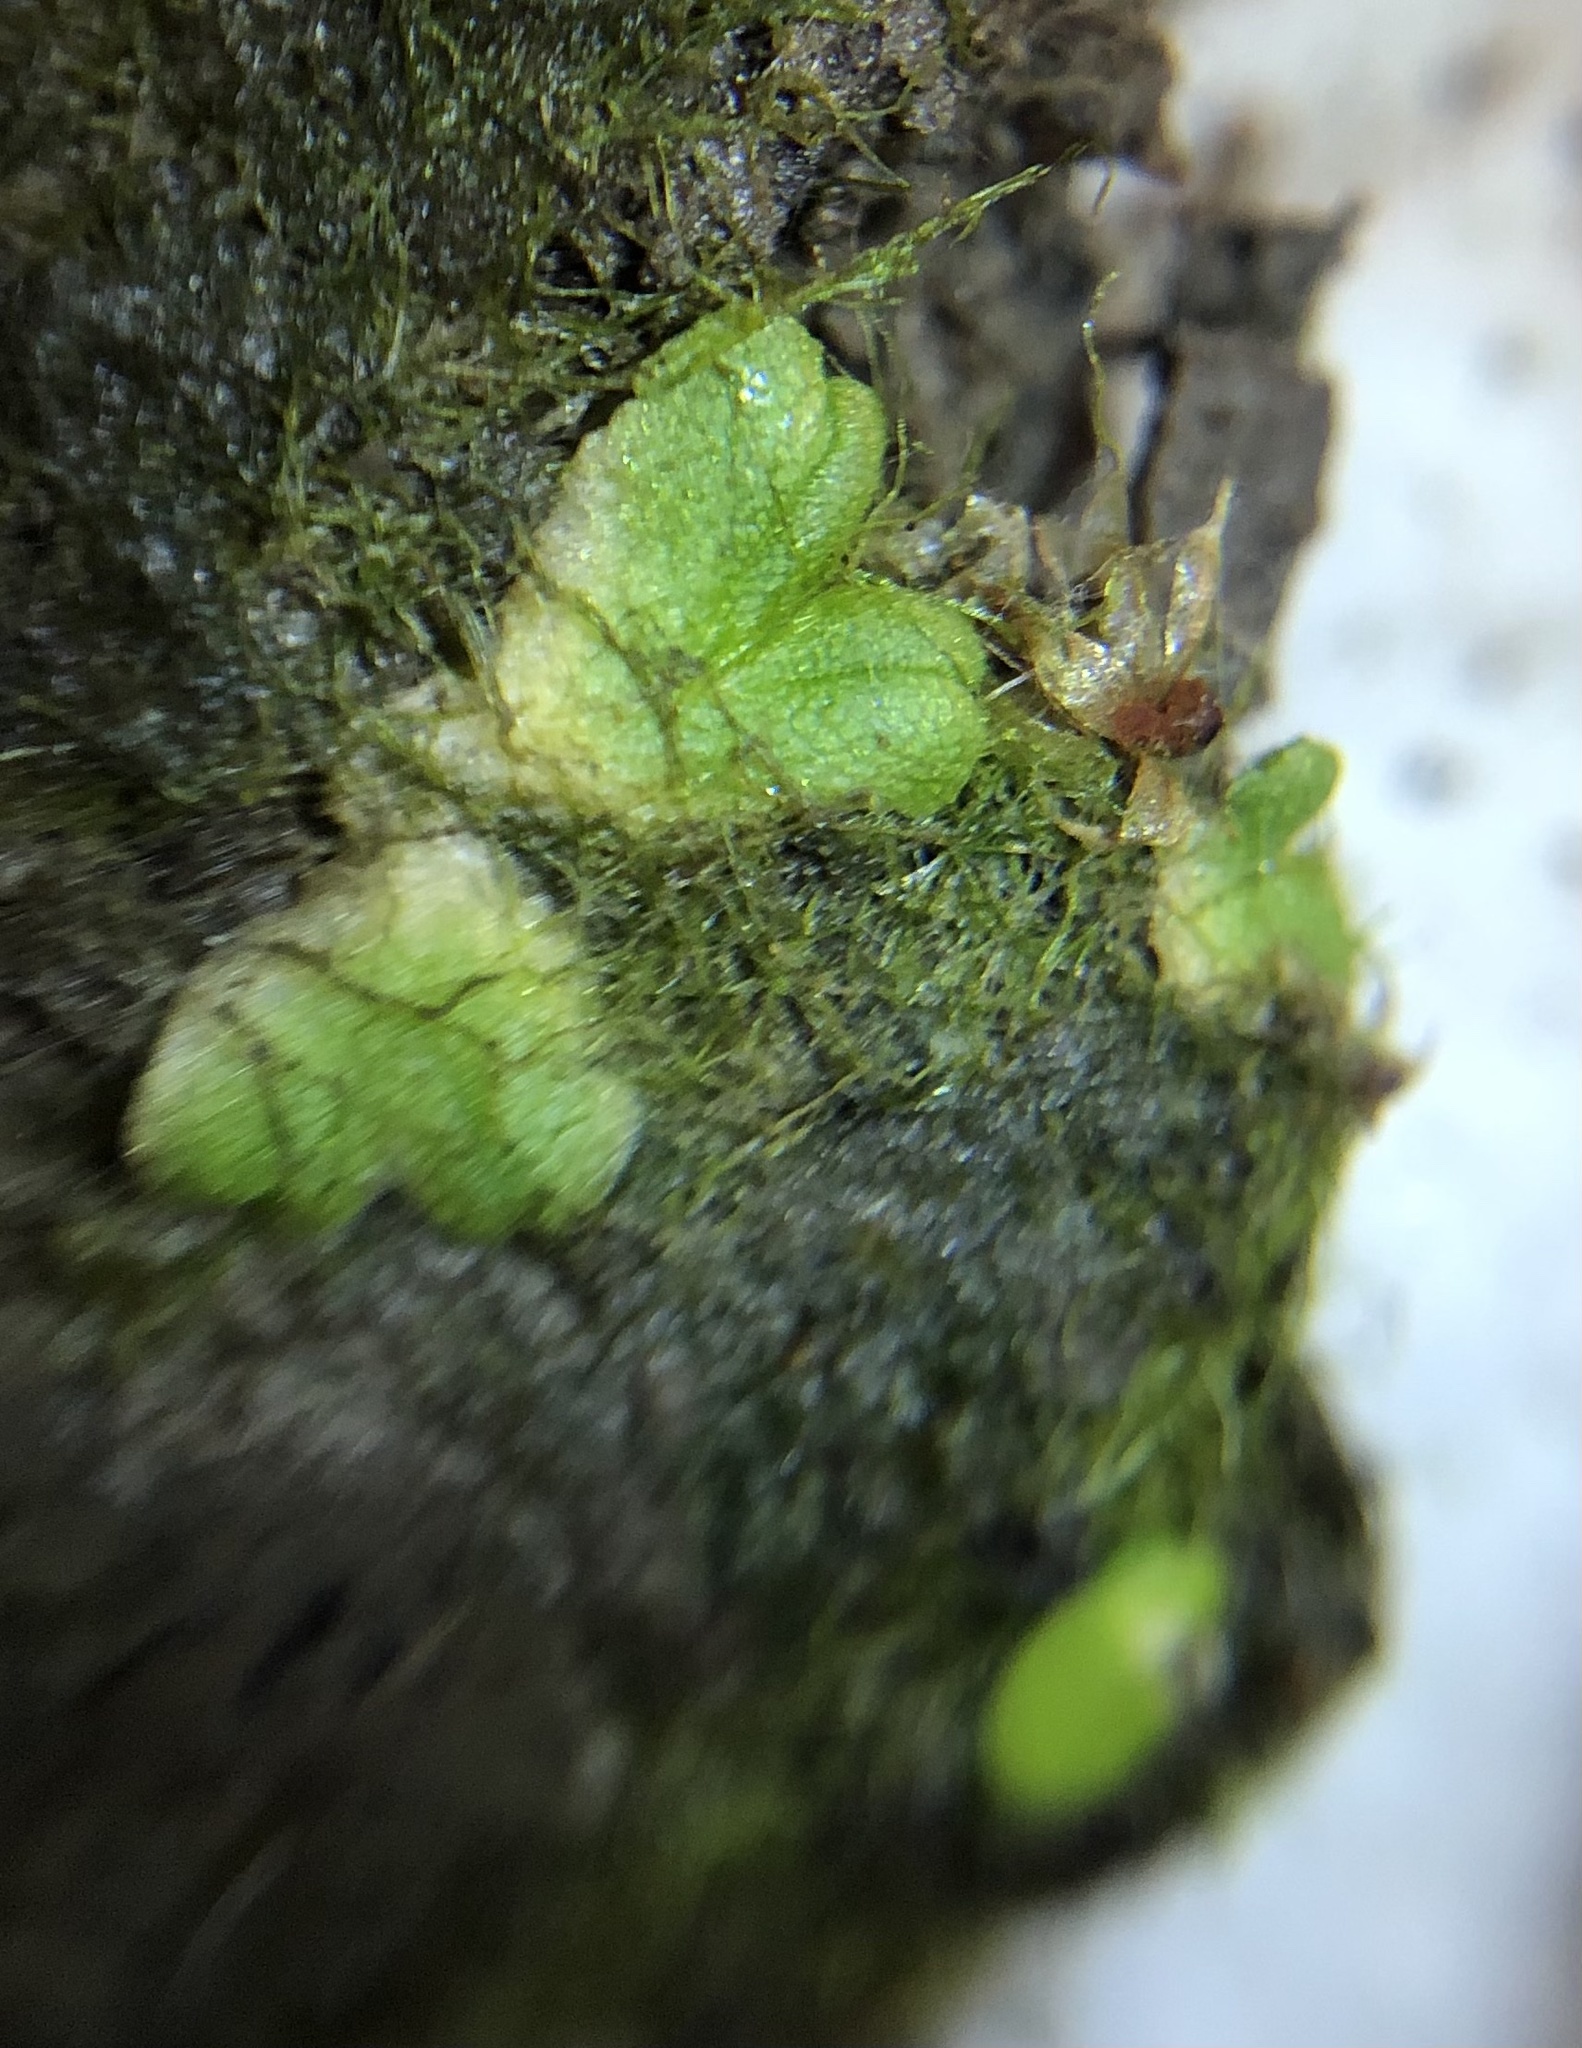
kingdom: Plantae
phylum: Marchantiophyta
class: Marchantiopsida
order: Marchantiales
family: Ricciaceae
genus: Ricciocarpos
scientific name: Ricciocarpos natans
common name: Purple-fringed liverwort
